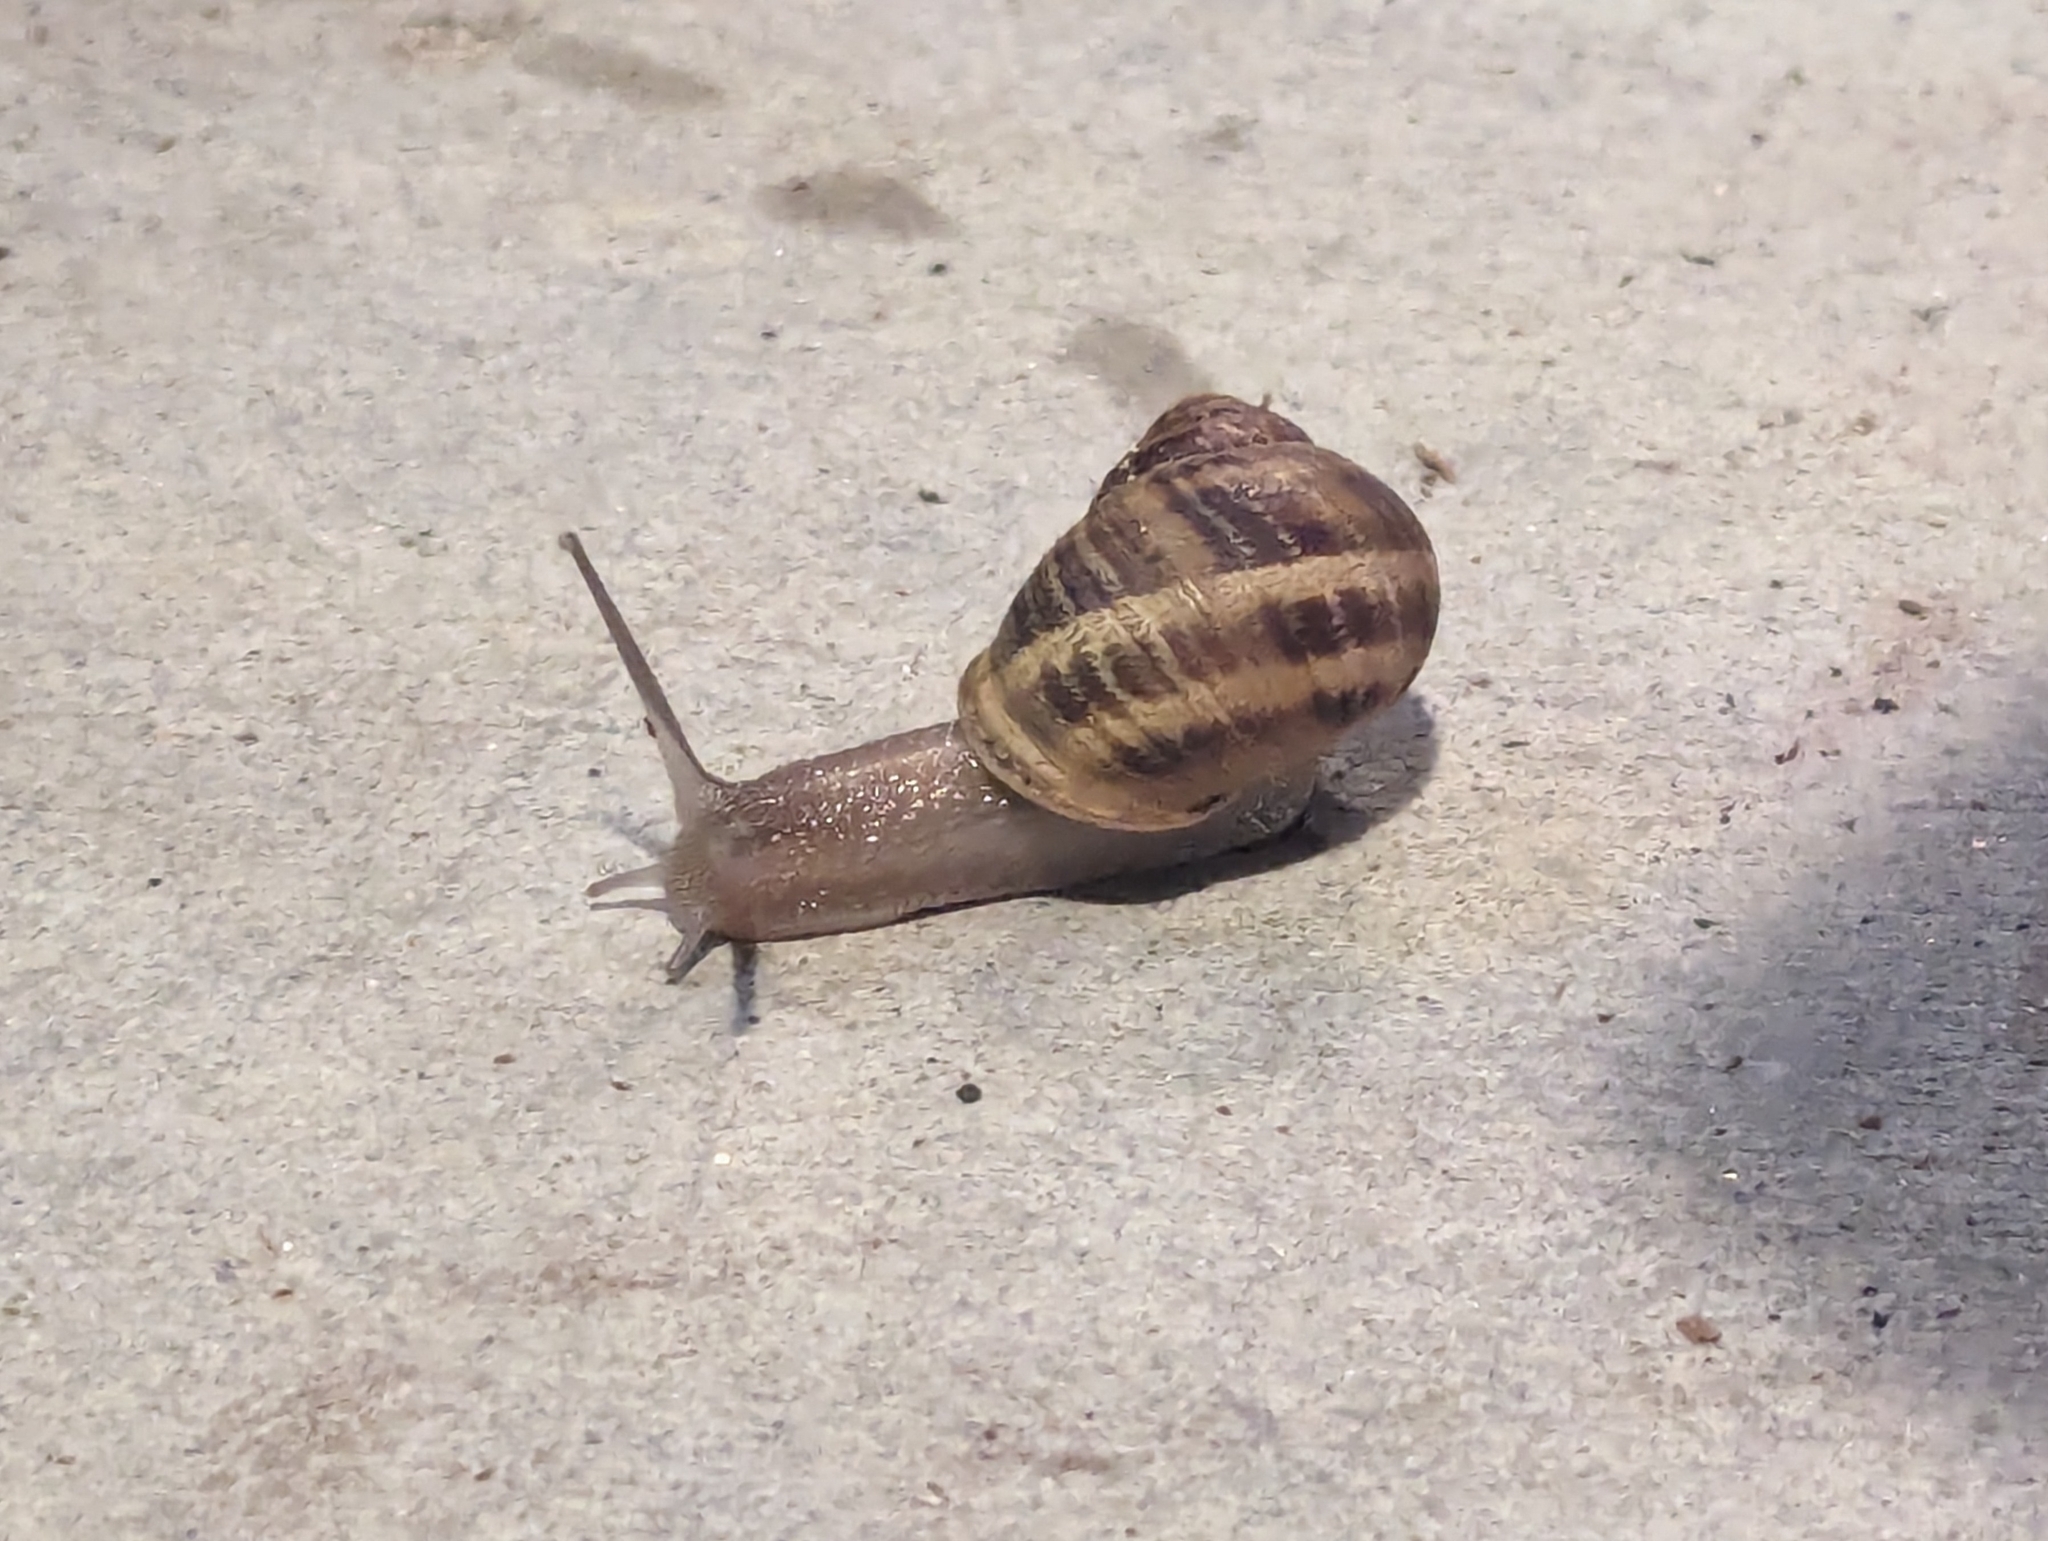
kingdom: Animalia
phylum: Mollusca
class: Gastropoda
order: Stylommatophora
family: Helicidae
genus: Cornu
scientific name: Cornu aspersum
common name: Brown garden snail
